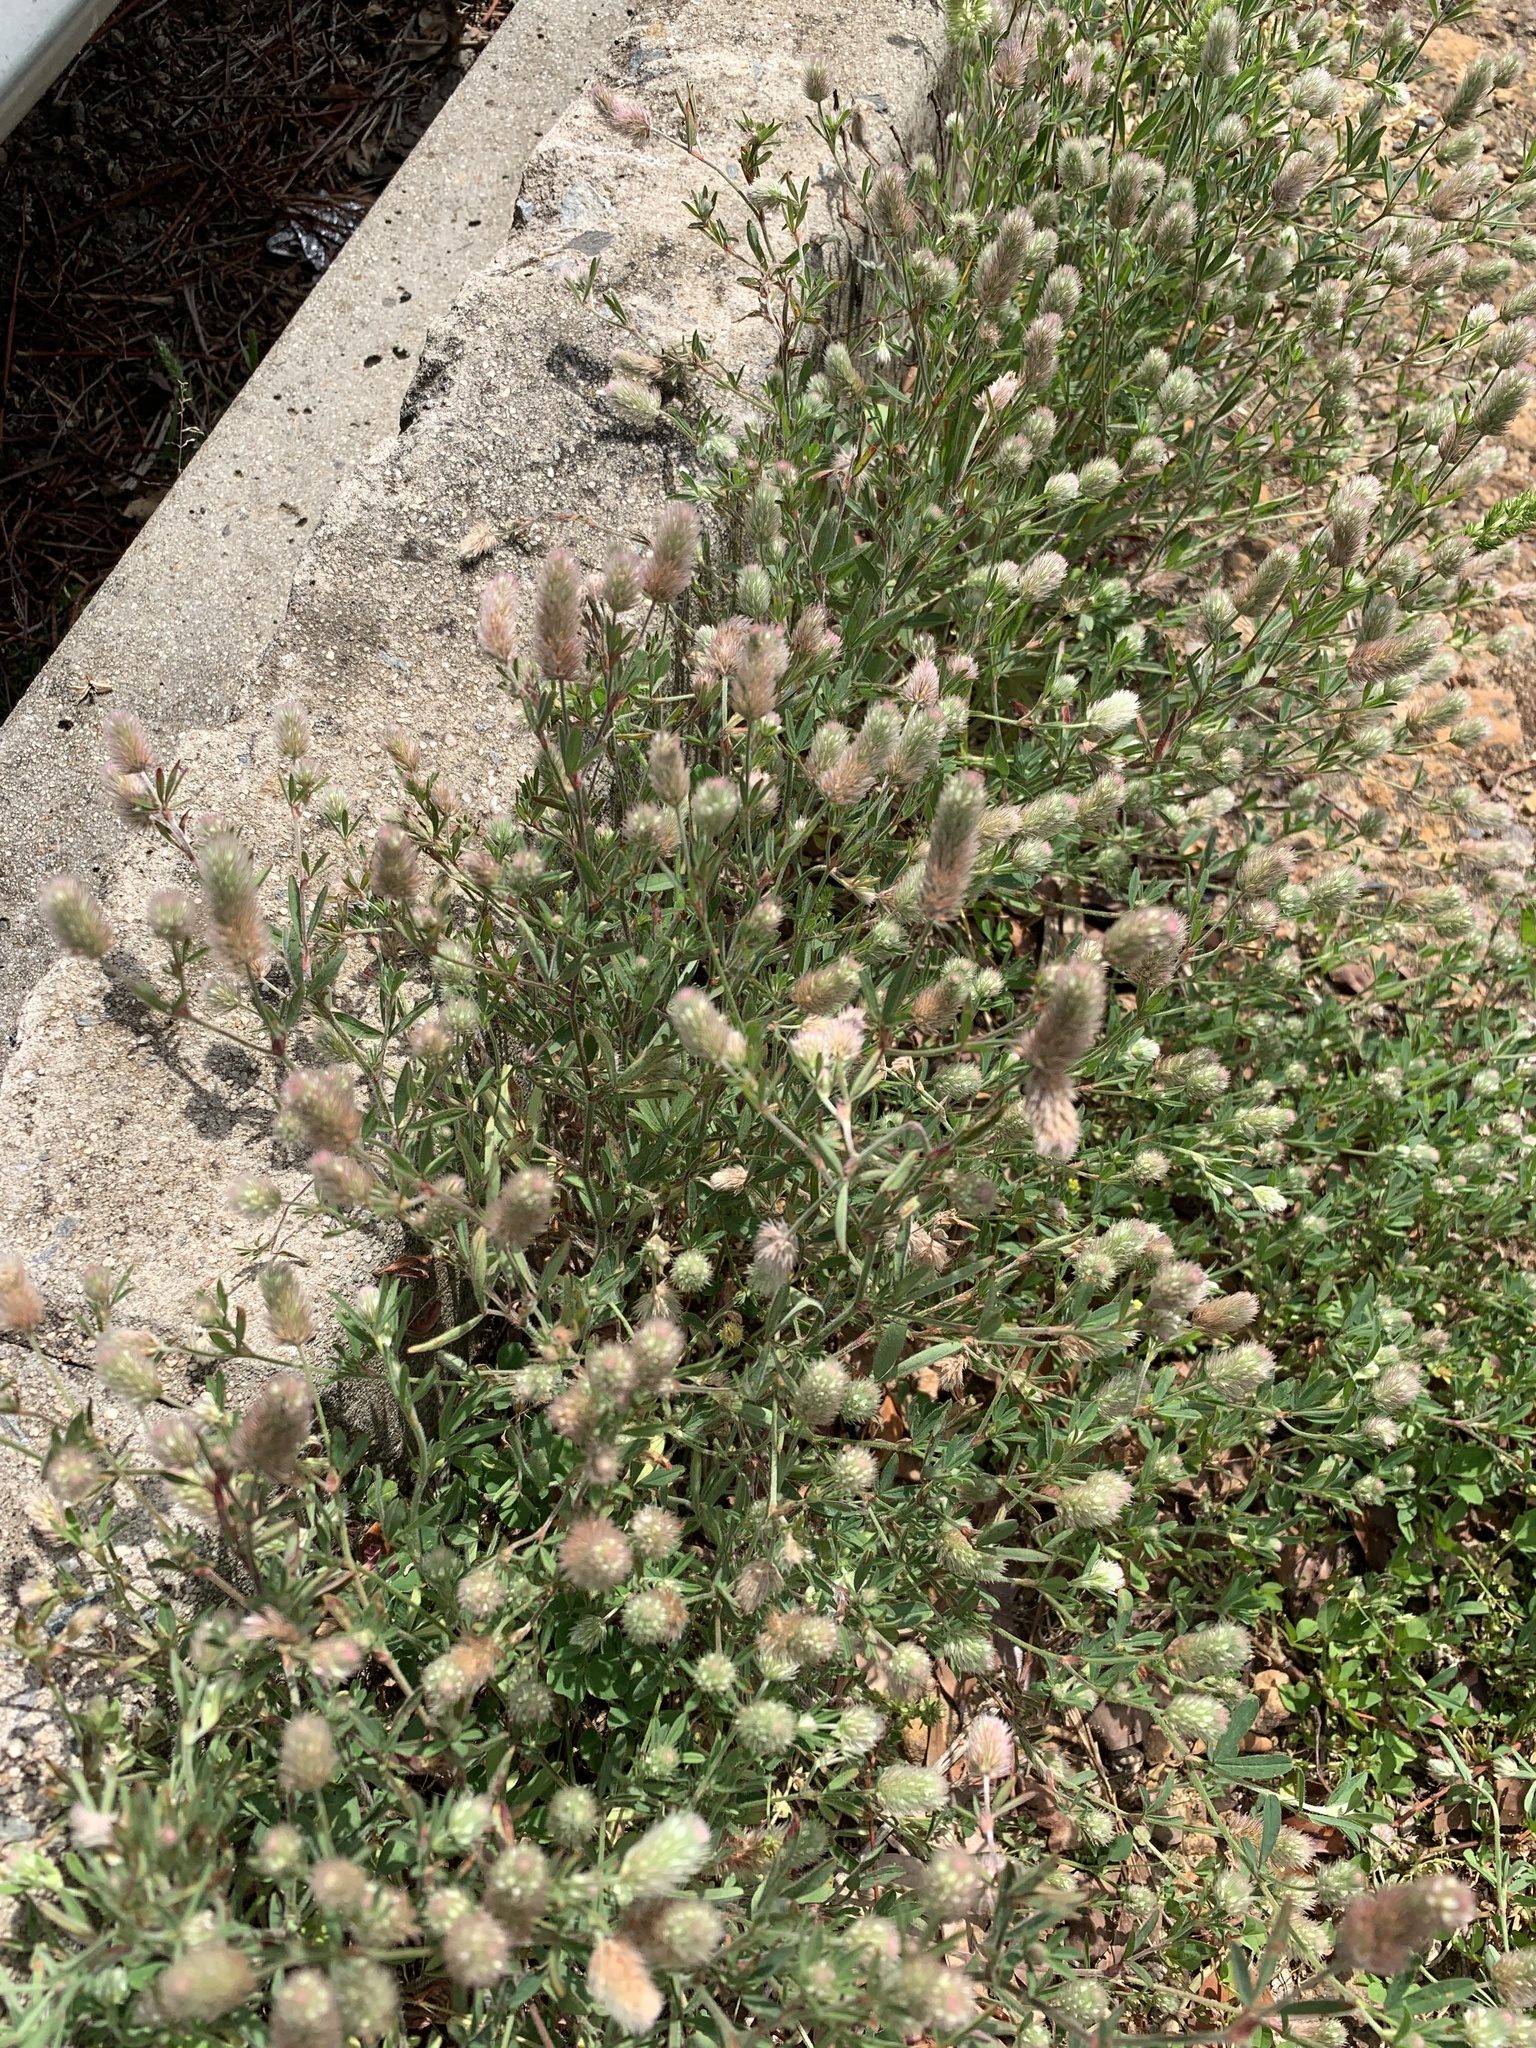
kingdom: Plantae
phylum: Tracheophyta
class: Magnoliopsida
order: Fabales
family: Fabaceae
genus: Trifolium
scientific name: Trifolium arvense
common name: Hare's-foot clover
